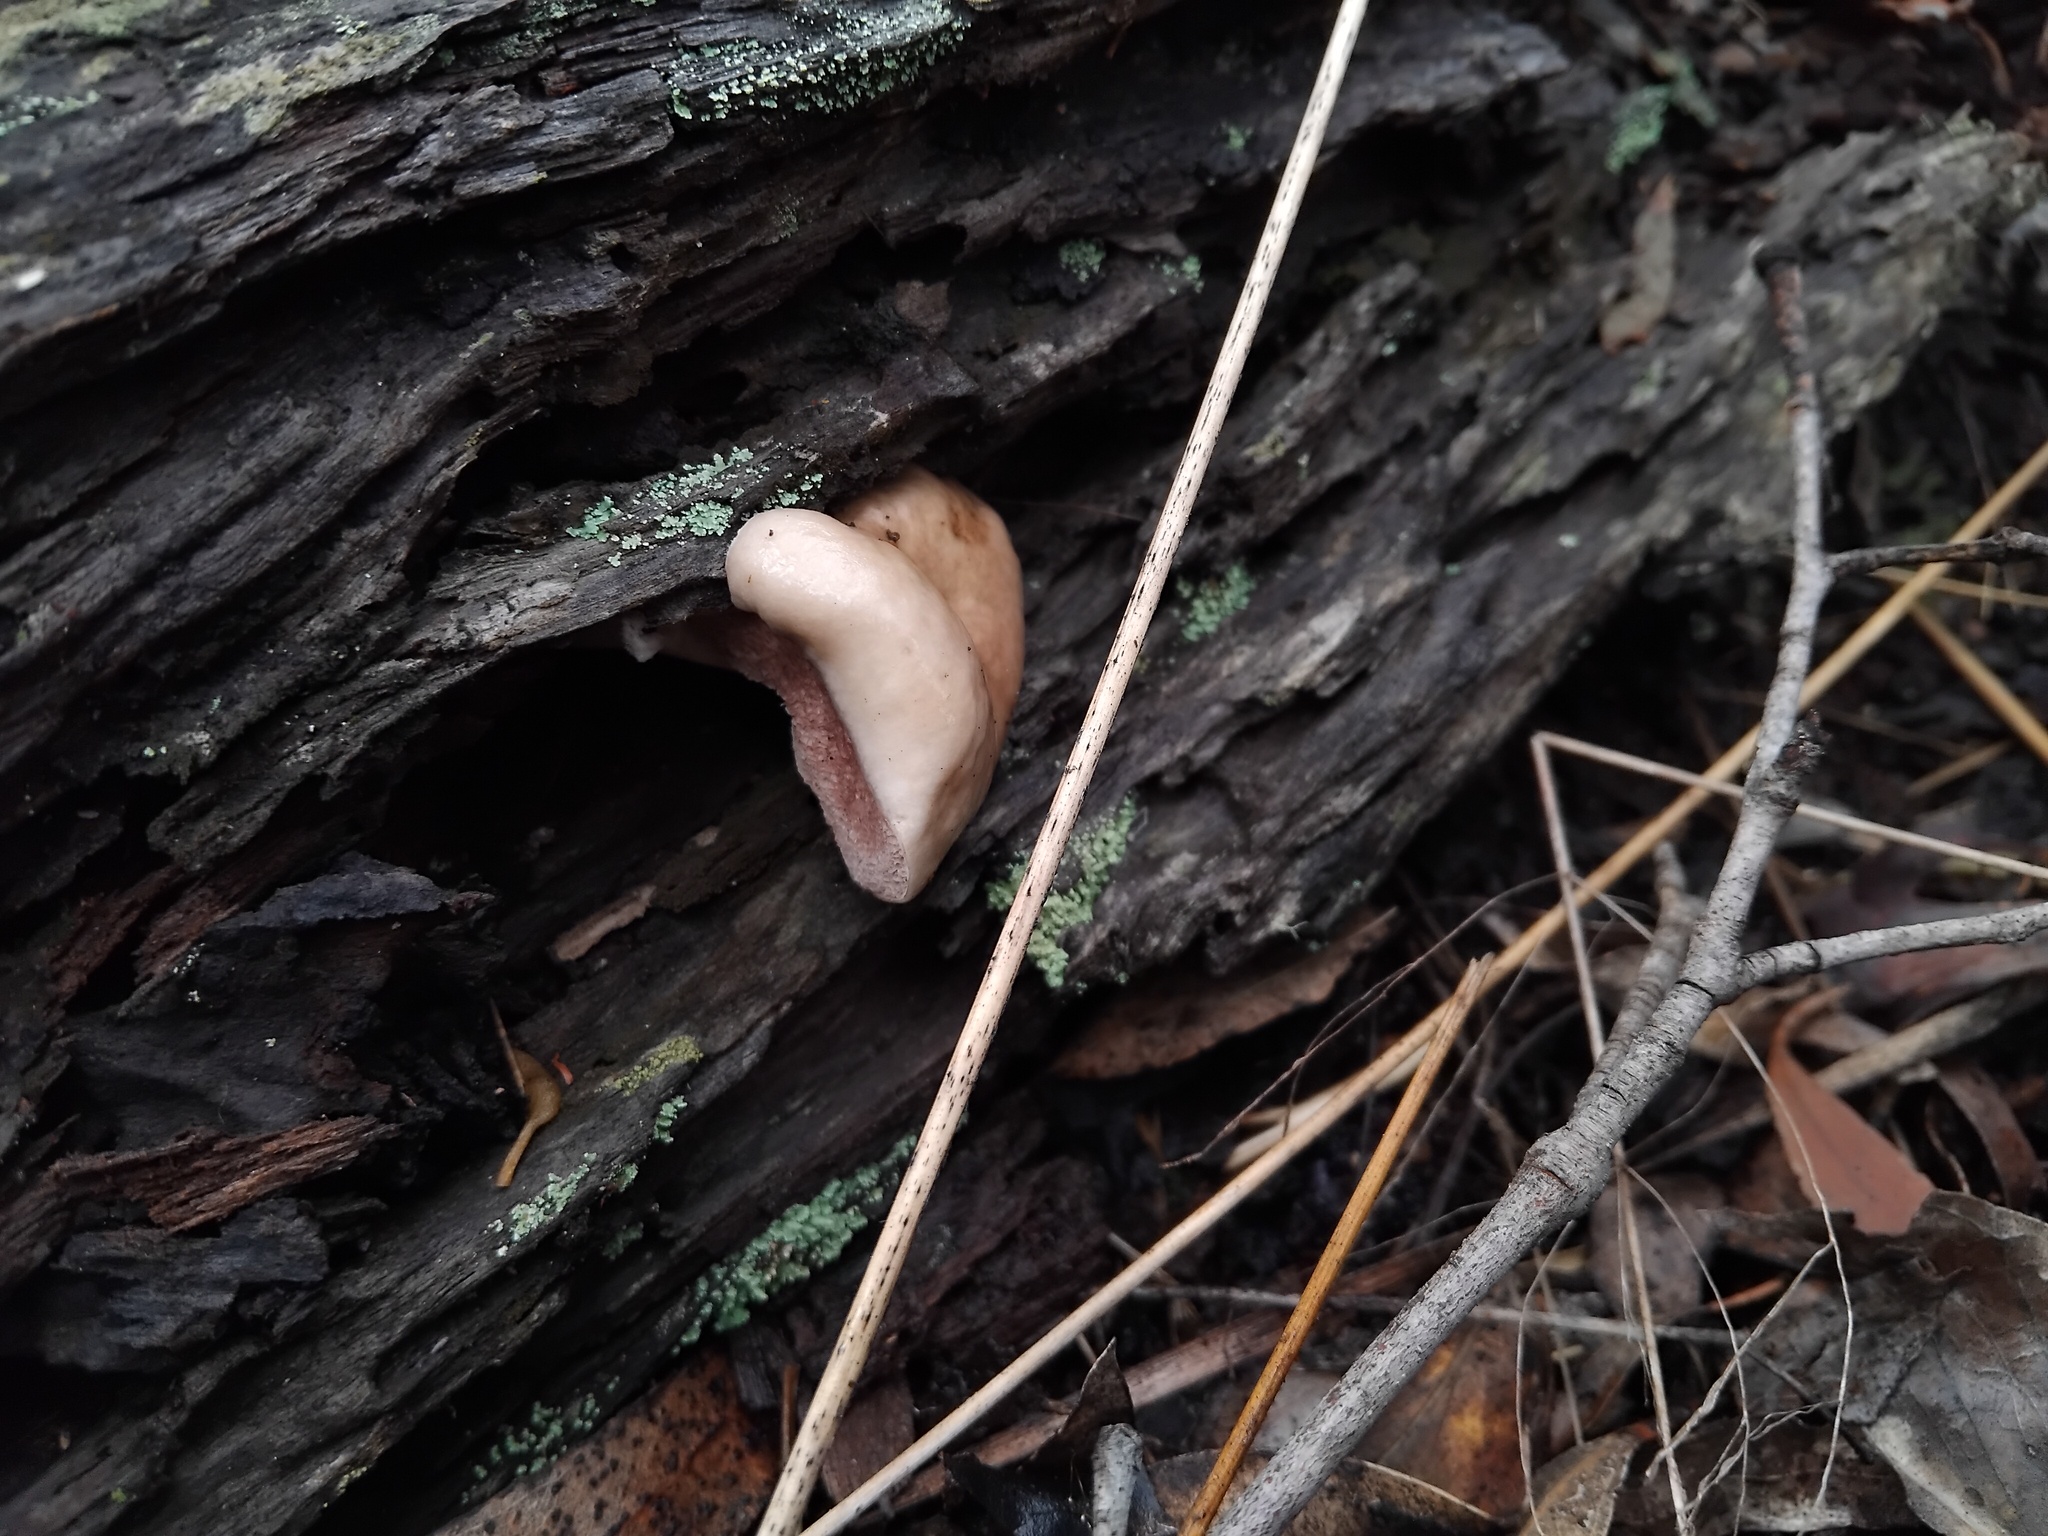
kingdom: Fungi
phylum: Basidiomycota
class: Agaricomycetes
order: Boletales
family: Boletaceae
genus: Fistulinella
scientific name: Fistulinella mollis
